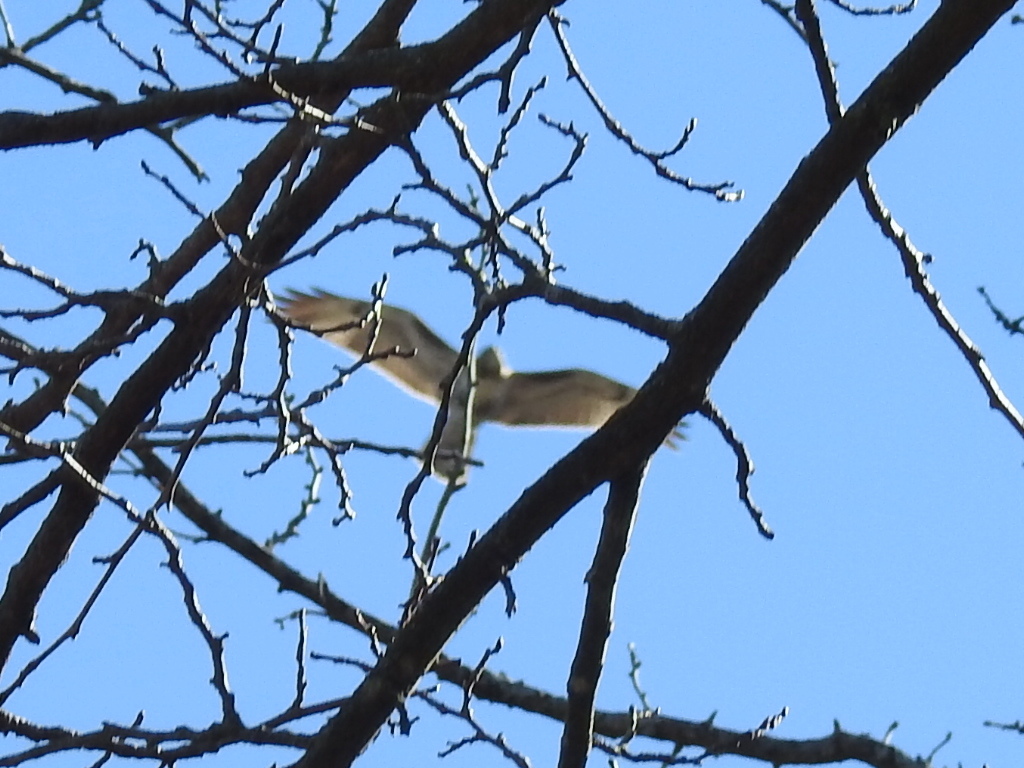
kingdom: Animalia
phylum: Chordata
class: Aves
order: Accipitriformes
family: Accipitridae
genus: Buteo
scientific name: Buteo jamaicensis
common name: Red-tailed hawk
